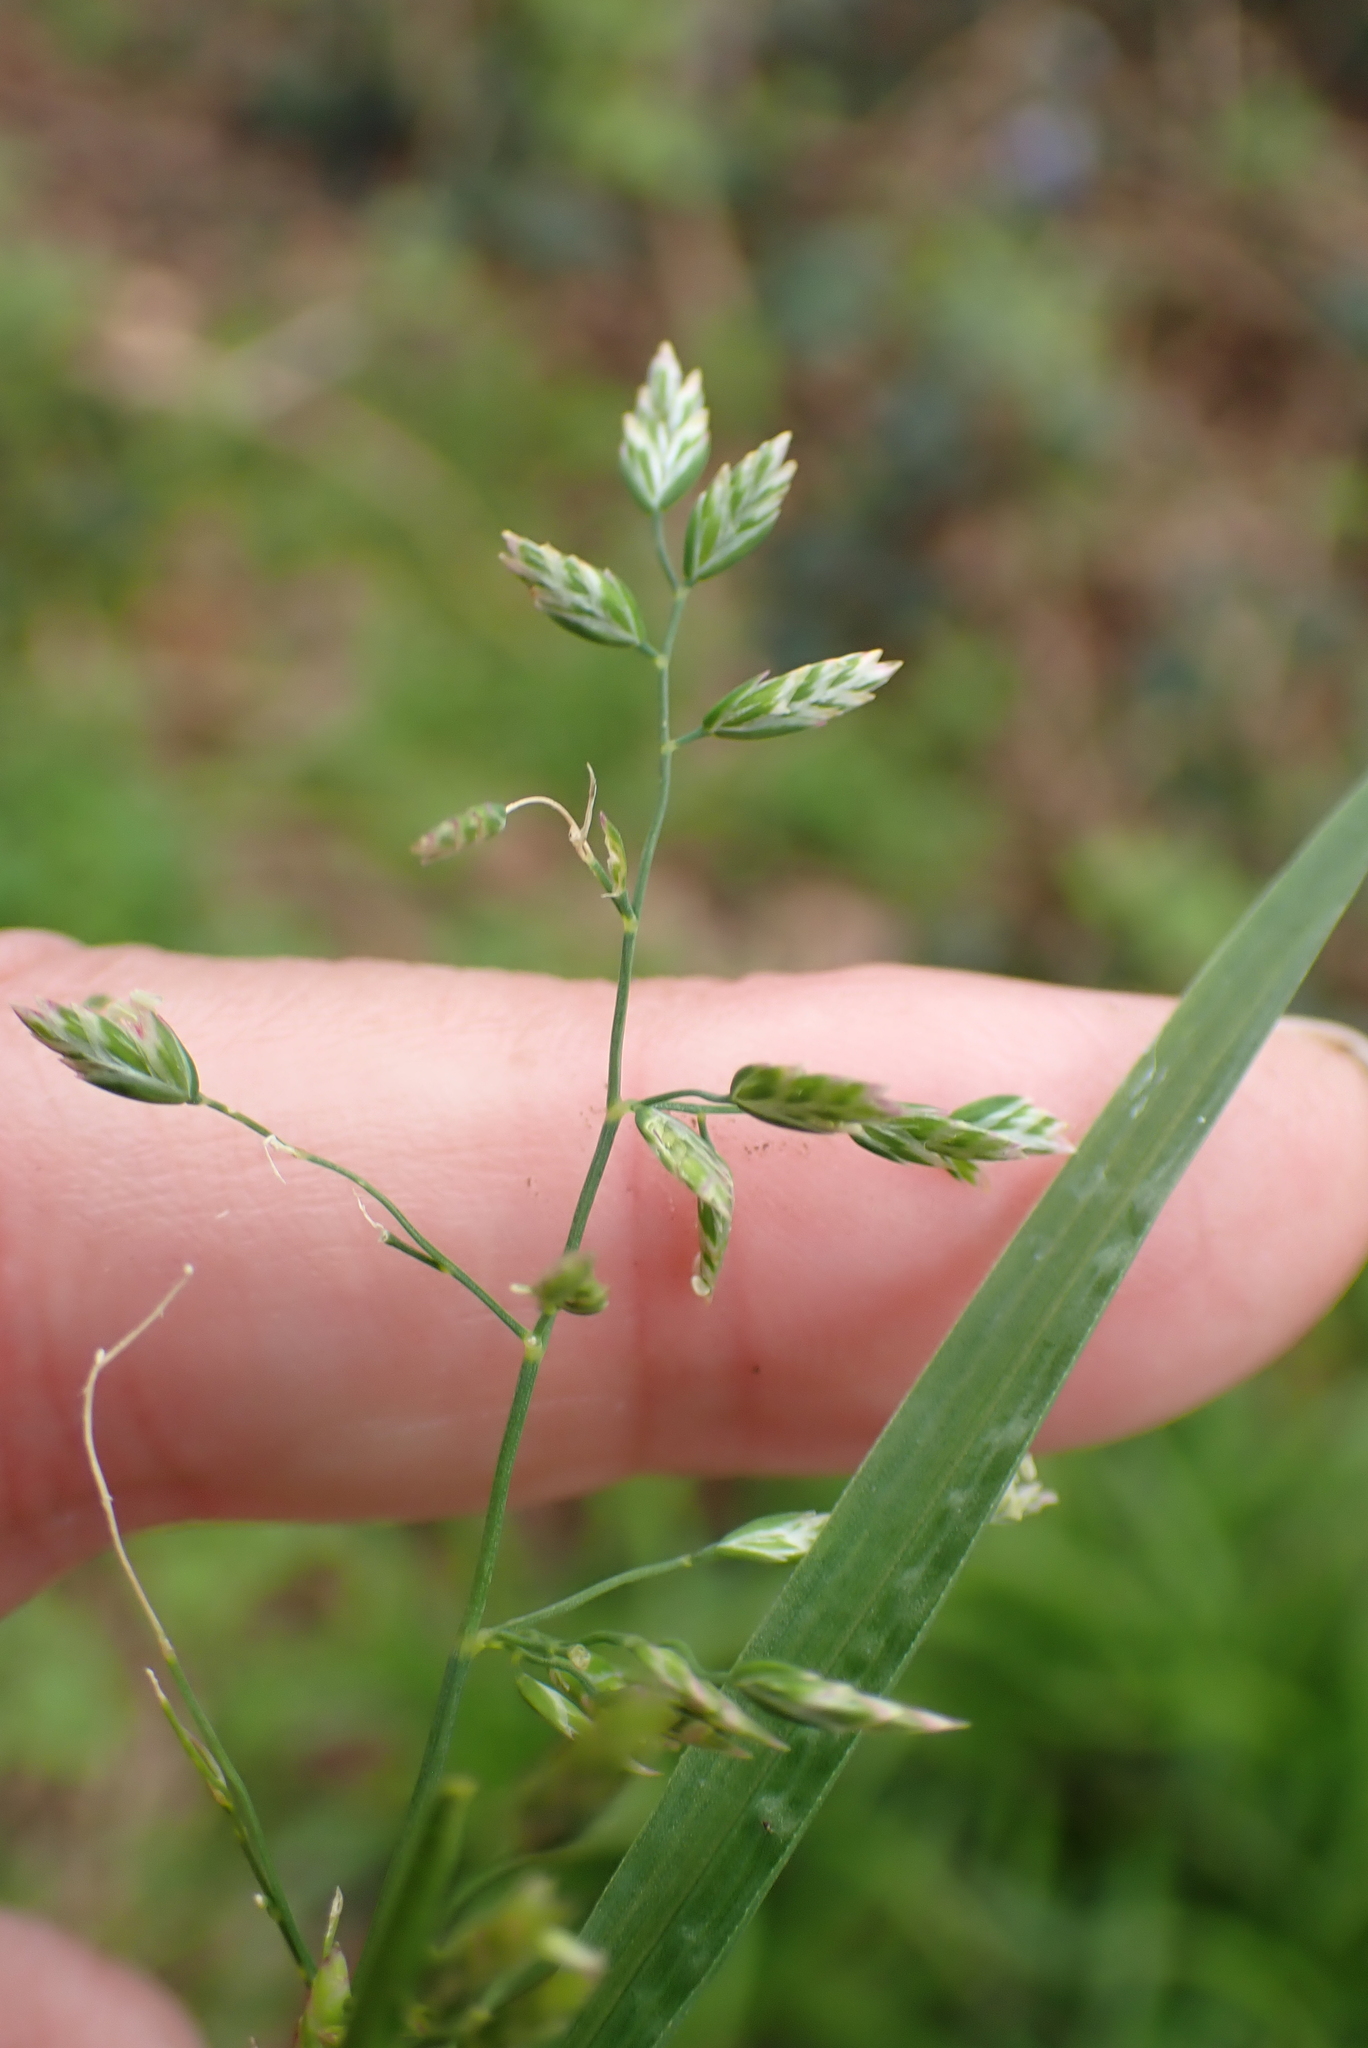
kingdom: Plantae
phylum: Tracheophyta
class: Liliopsida
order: Poales
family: Poaceae
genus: Poa
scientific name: Poa annua
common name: Annual bluegrass
